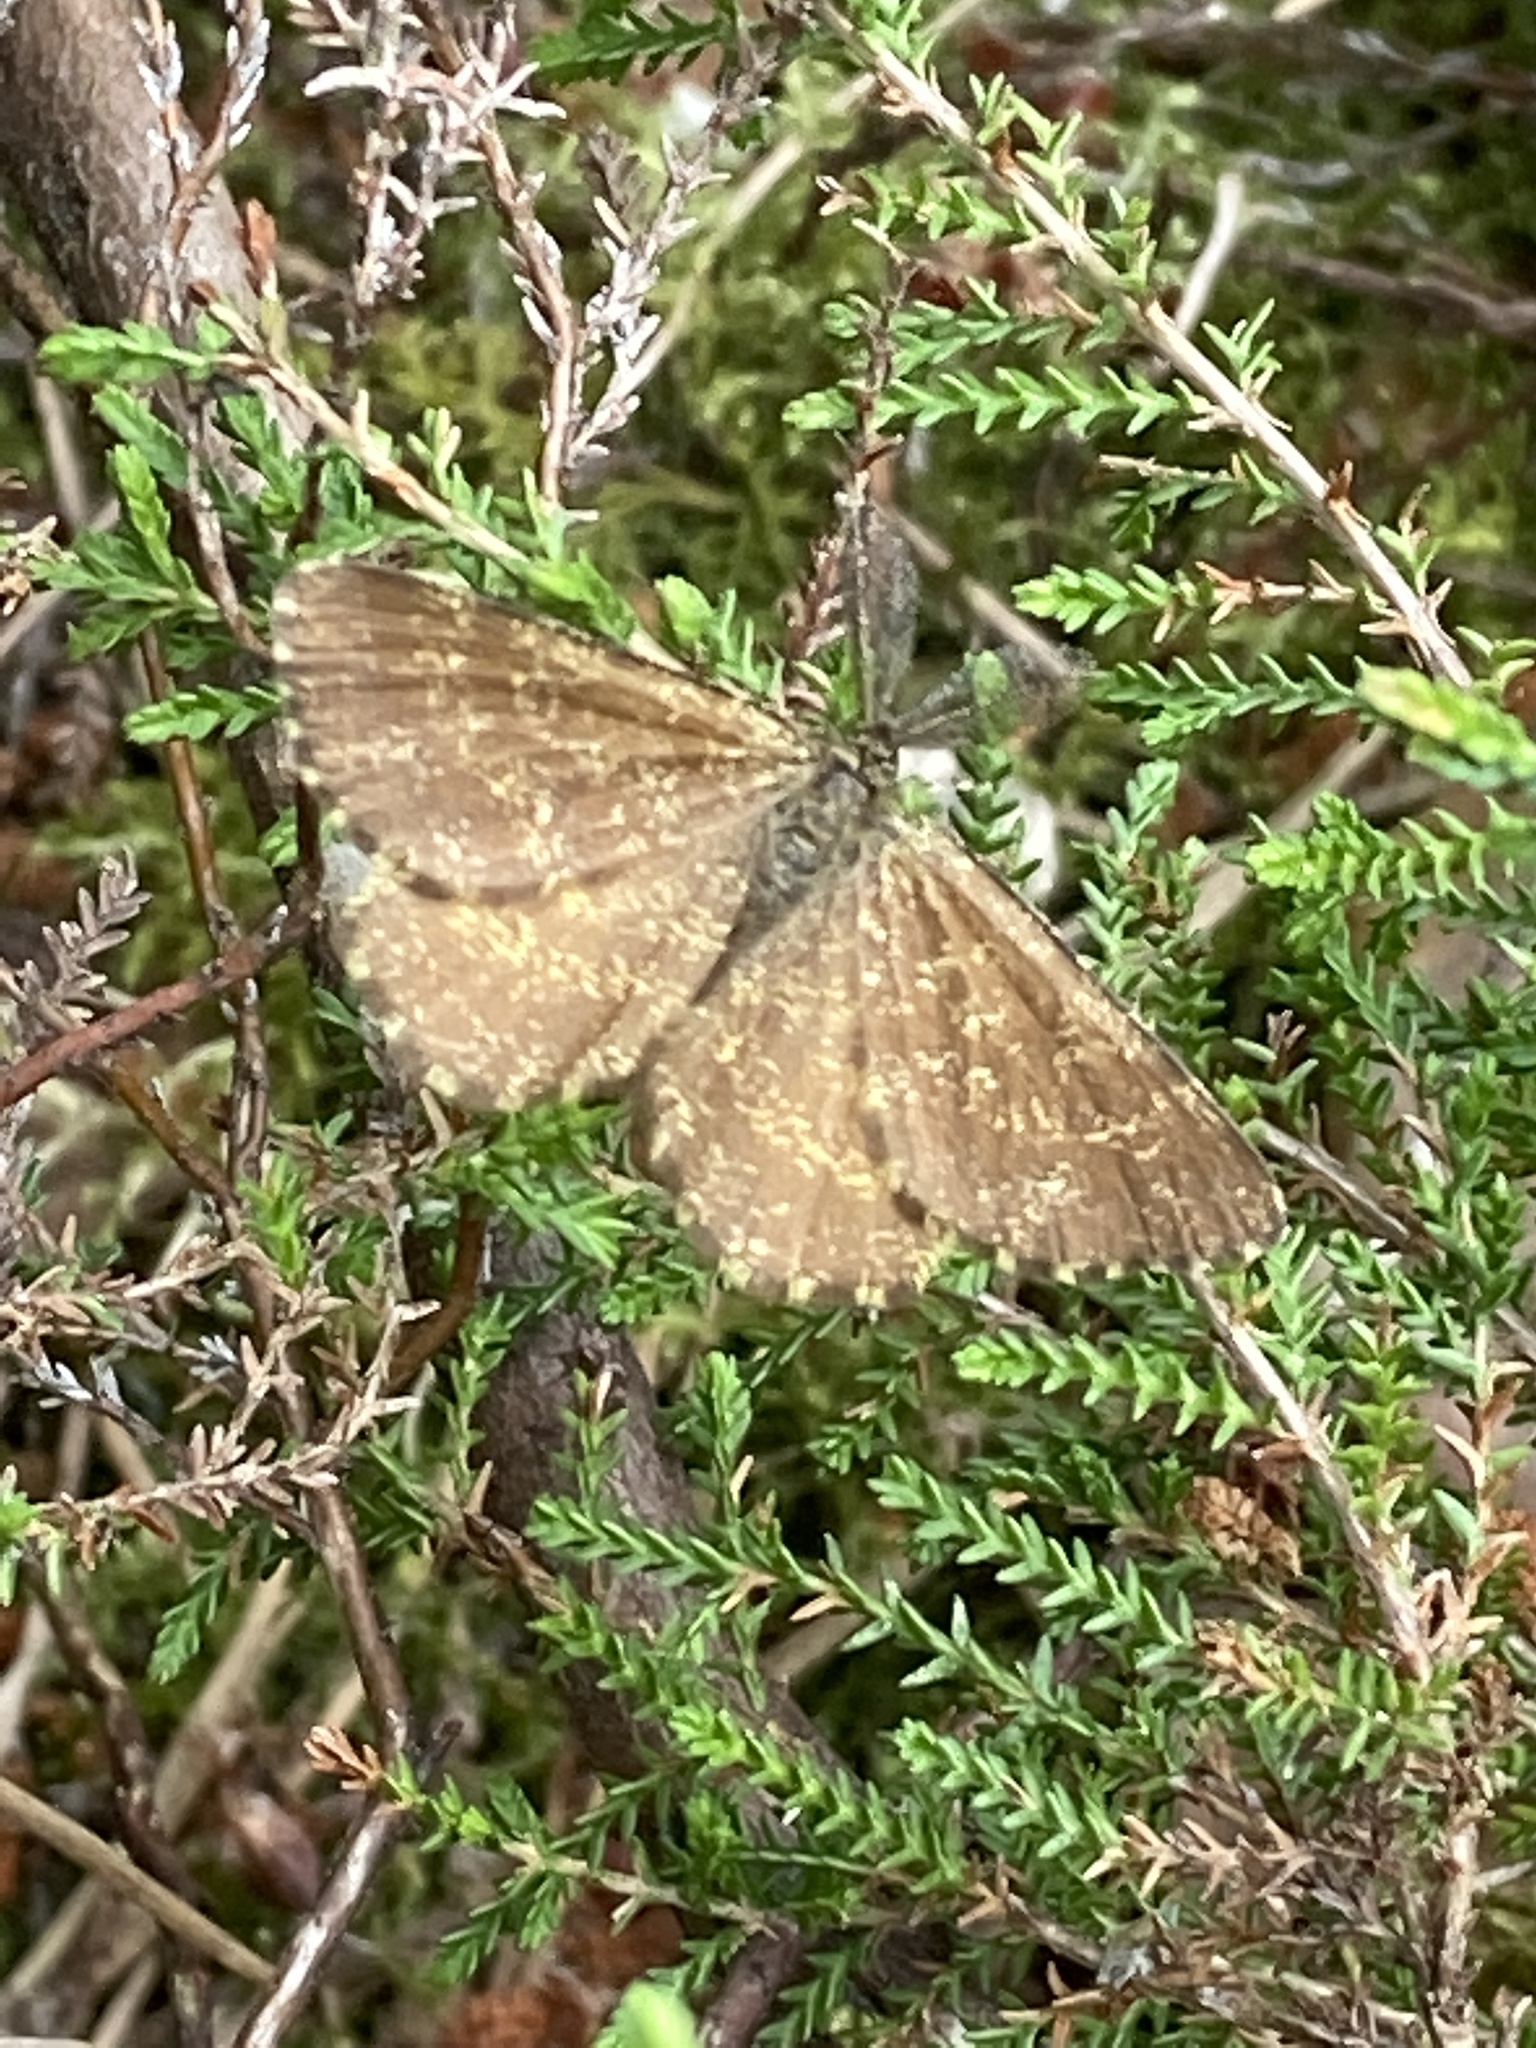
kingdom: Animalia
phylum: Arthropoda
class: Insecta
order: Lepidoptera
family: Geometridae
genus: Ematurga
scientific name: Ematurga atomaria
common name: Common heath
